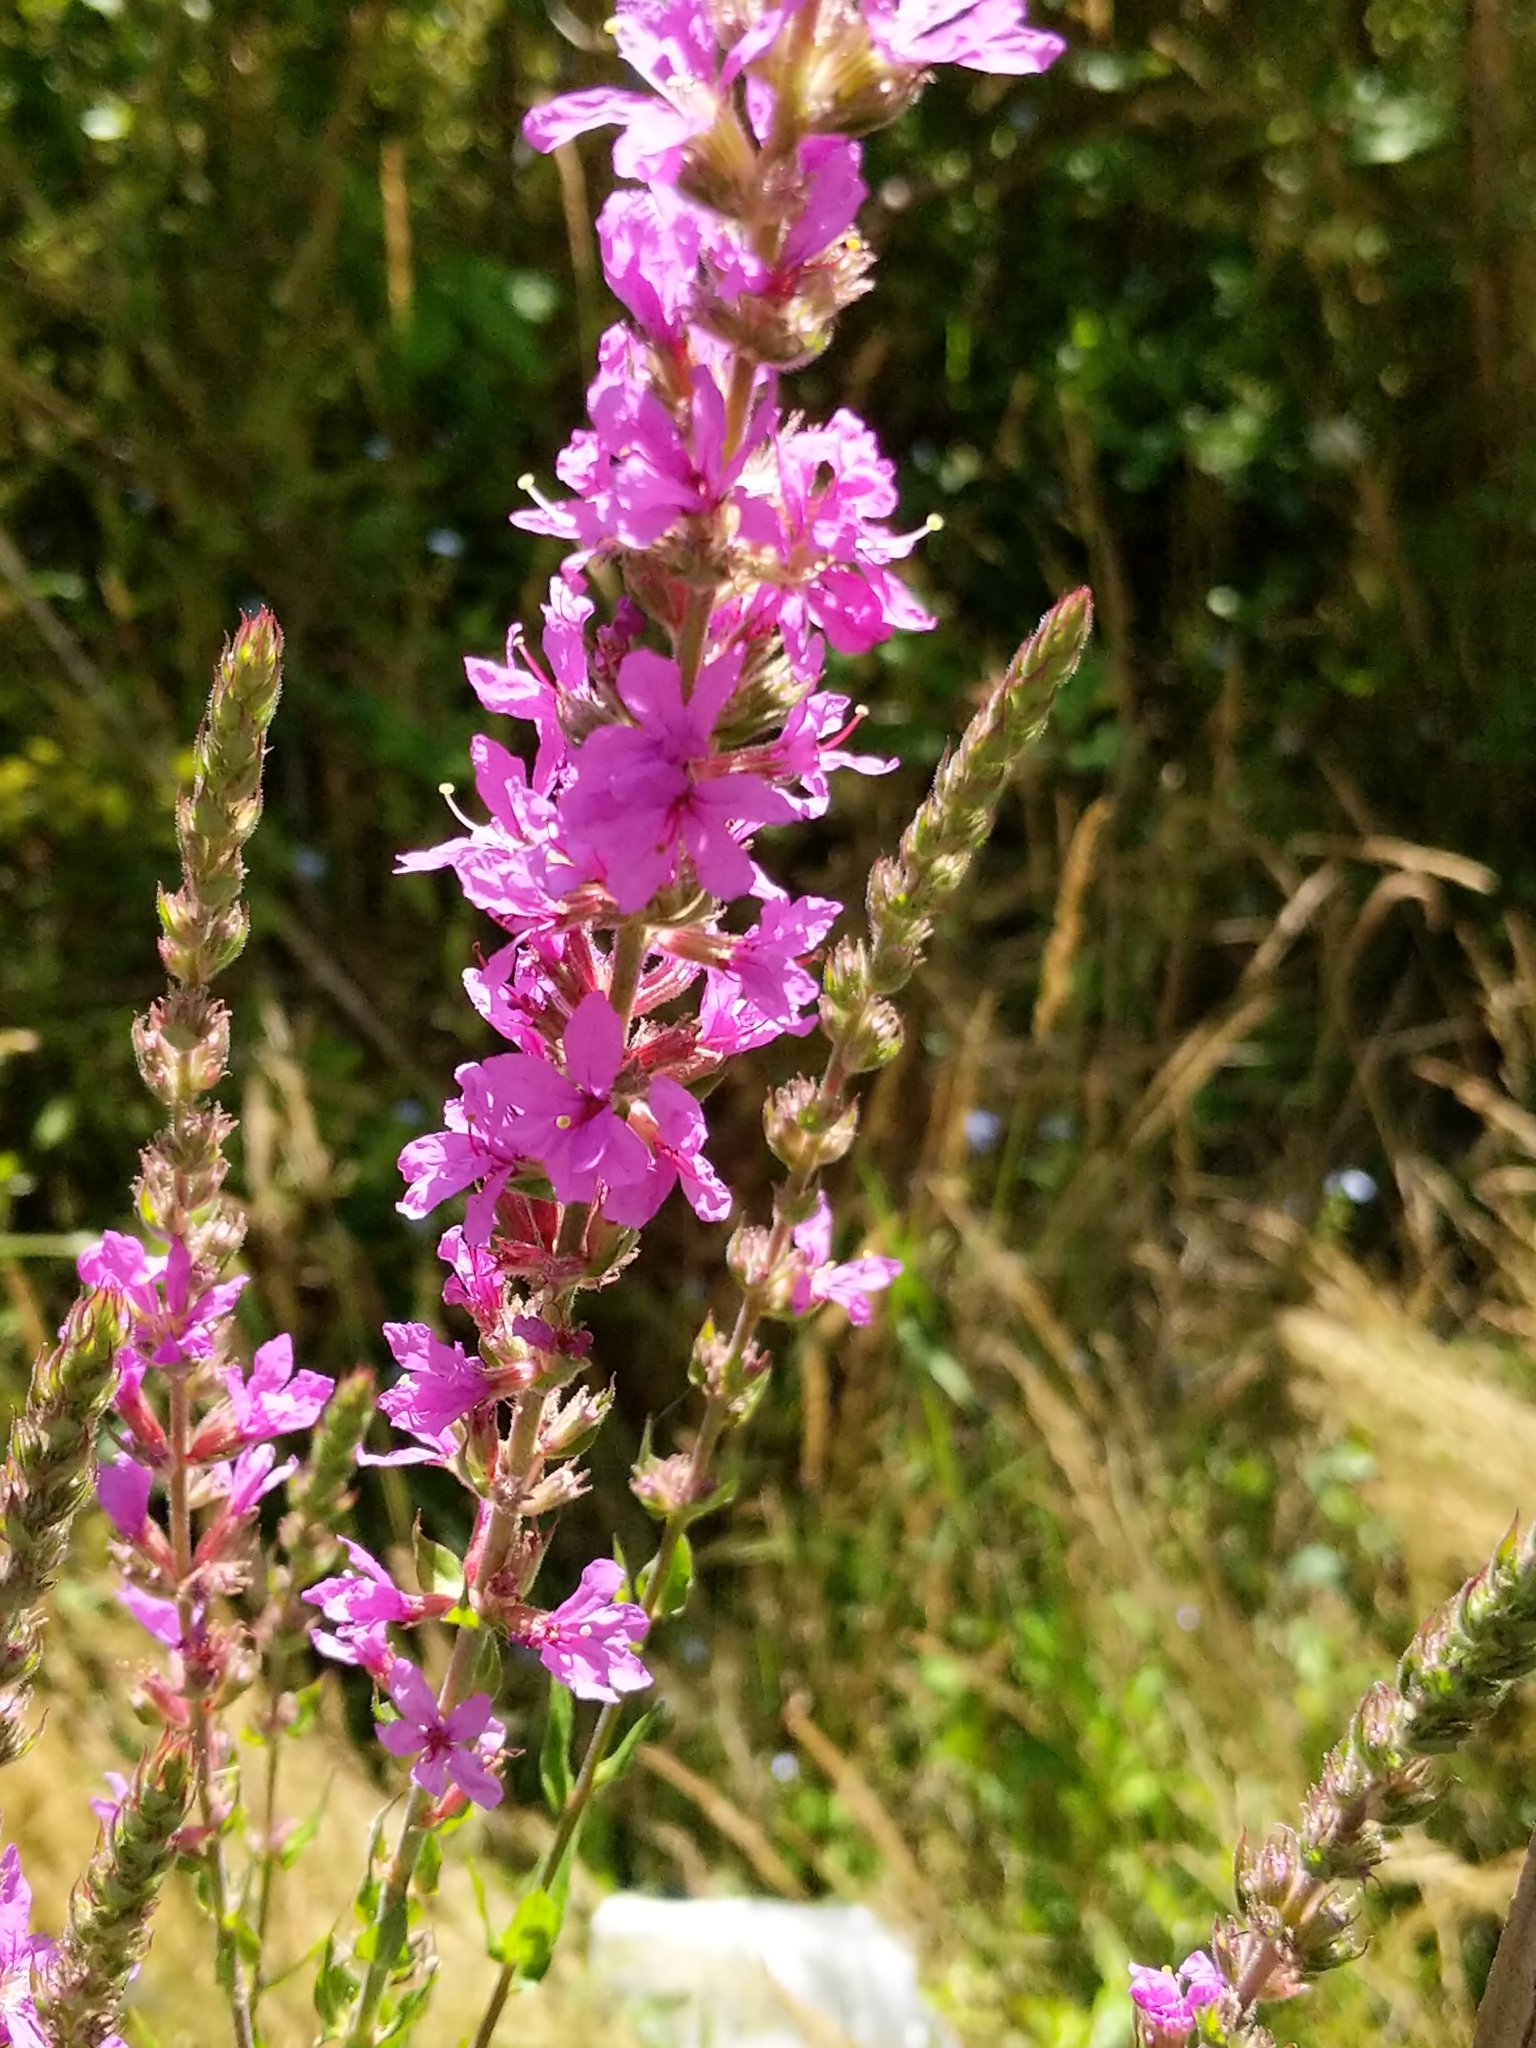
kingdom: Plantae
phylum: Tracheophyta
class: Magnoliopsida
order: Myrtales
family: Lythraceae
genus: Lythrum
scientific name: Lythrum salicaria
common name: Purple loosestrife
